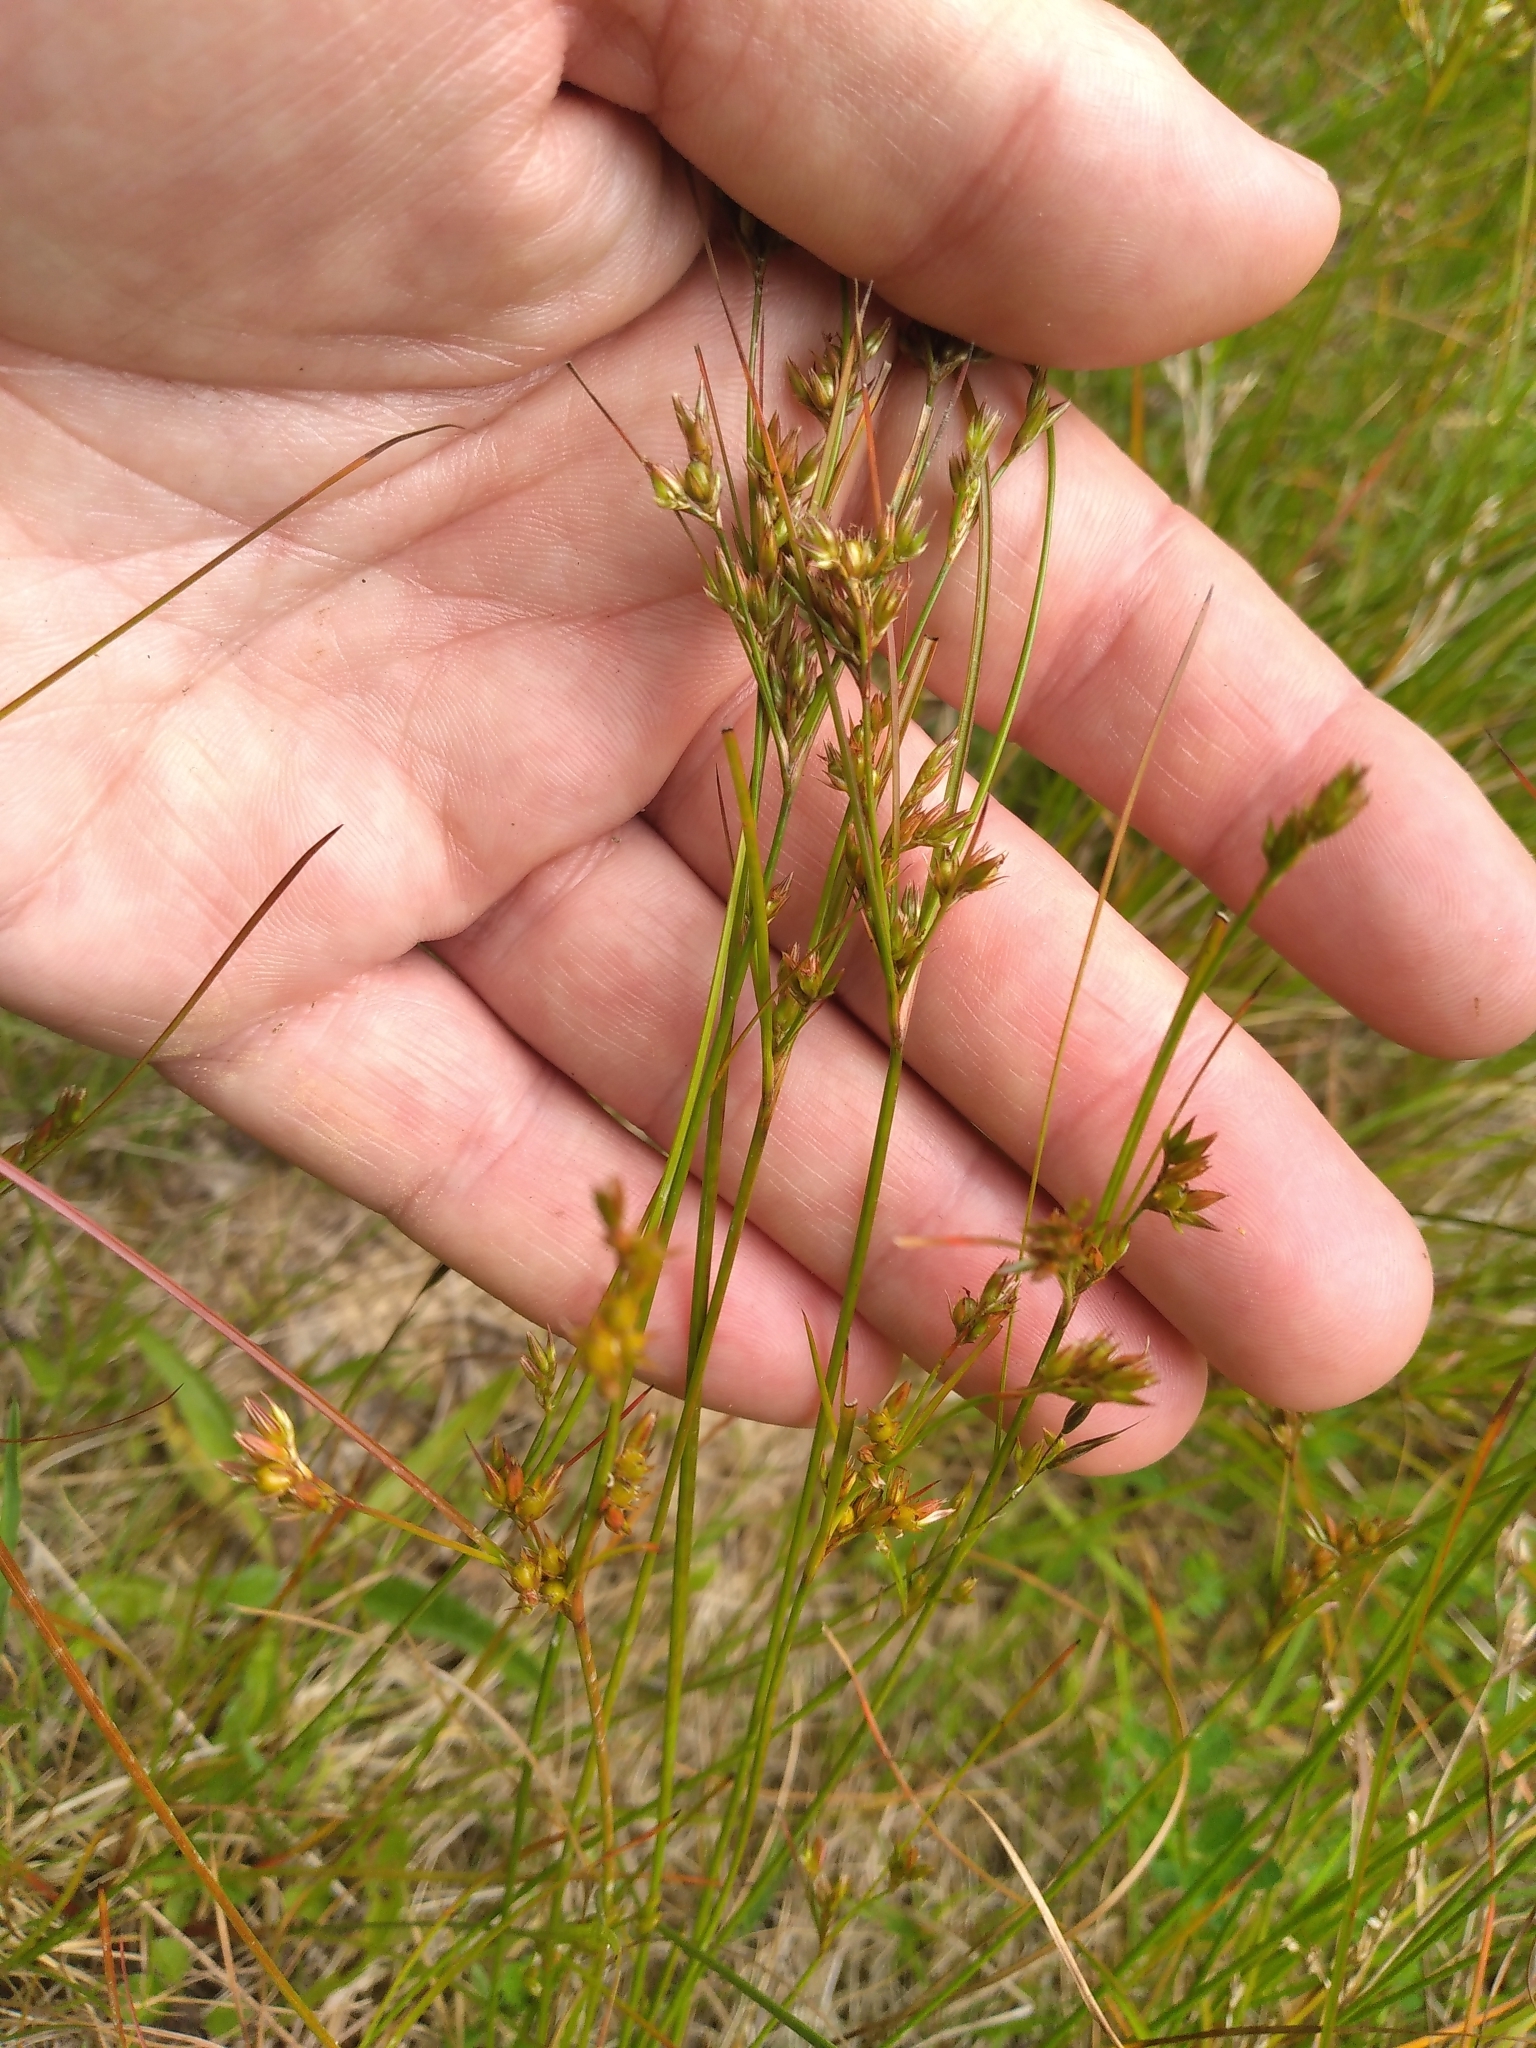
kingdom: Plantae
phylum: Tracheophyta
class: Liliopsida
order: Poales
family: Juncaceae
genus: Juncus
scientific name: Juncus tenuis
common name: Slender rush
